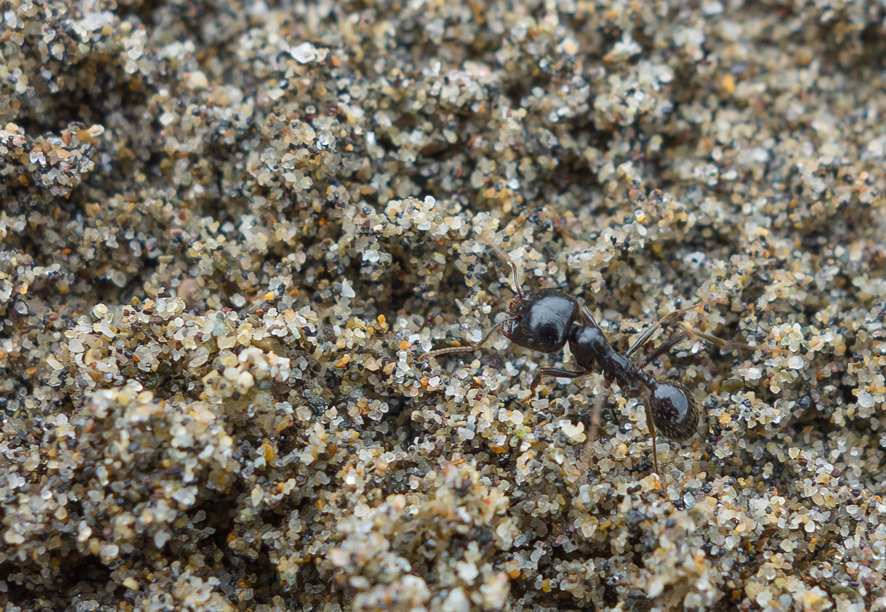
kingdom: Animalia
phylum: Arthropoda
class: Insecta
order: Hymenoptera
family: Formicidae
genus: Messor
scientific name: Messor capitatus
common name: European seed harvesting ant
